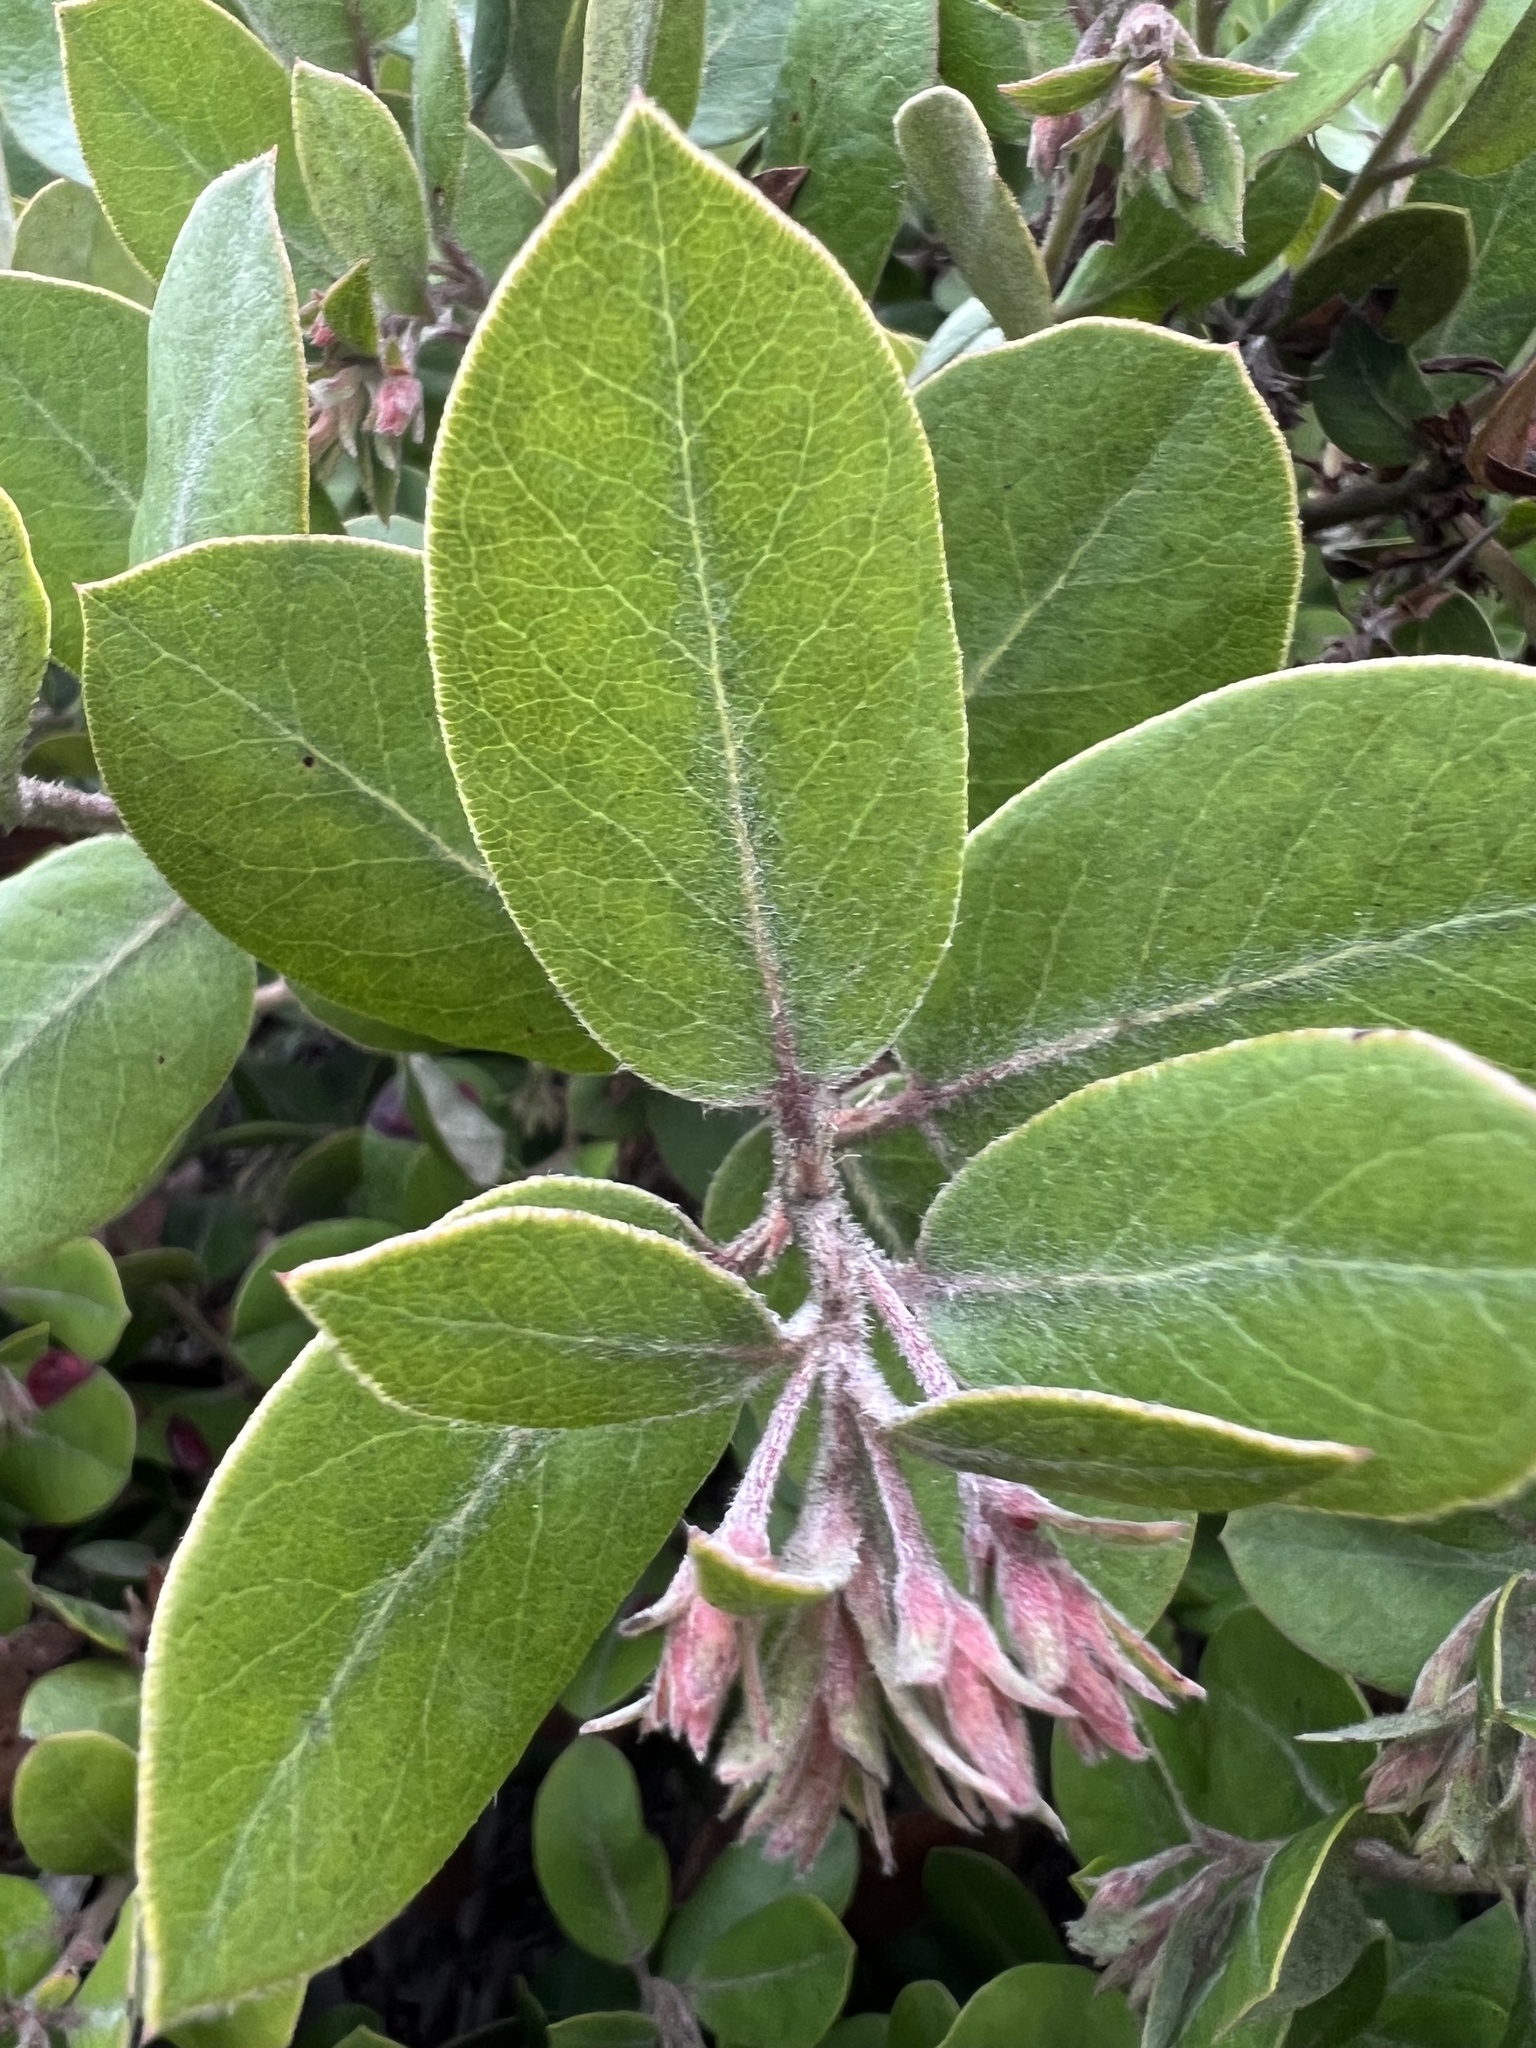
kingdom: Plantae
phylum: Tracheophyta
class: Magnoliopsida
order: Ericales
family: Ericaceae
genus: Arctostaphylos
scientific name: Arctostaphylos tomentosa
